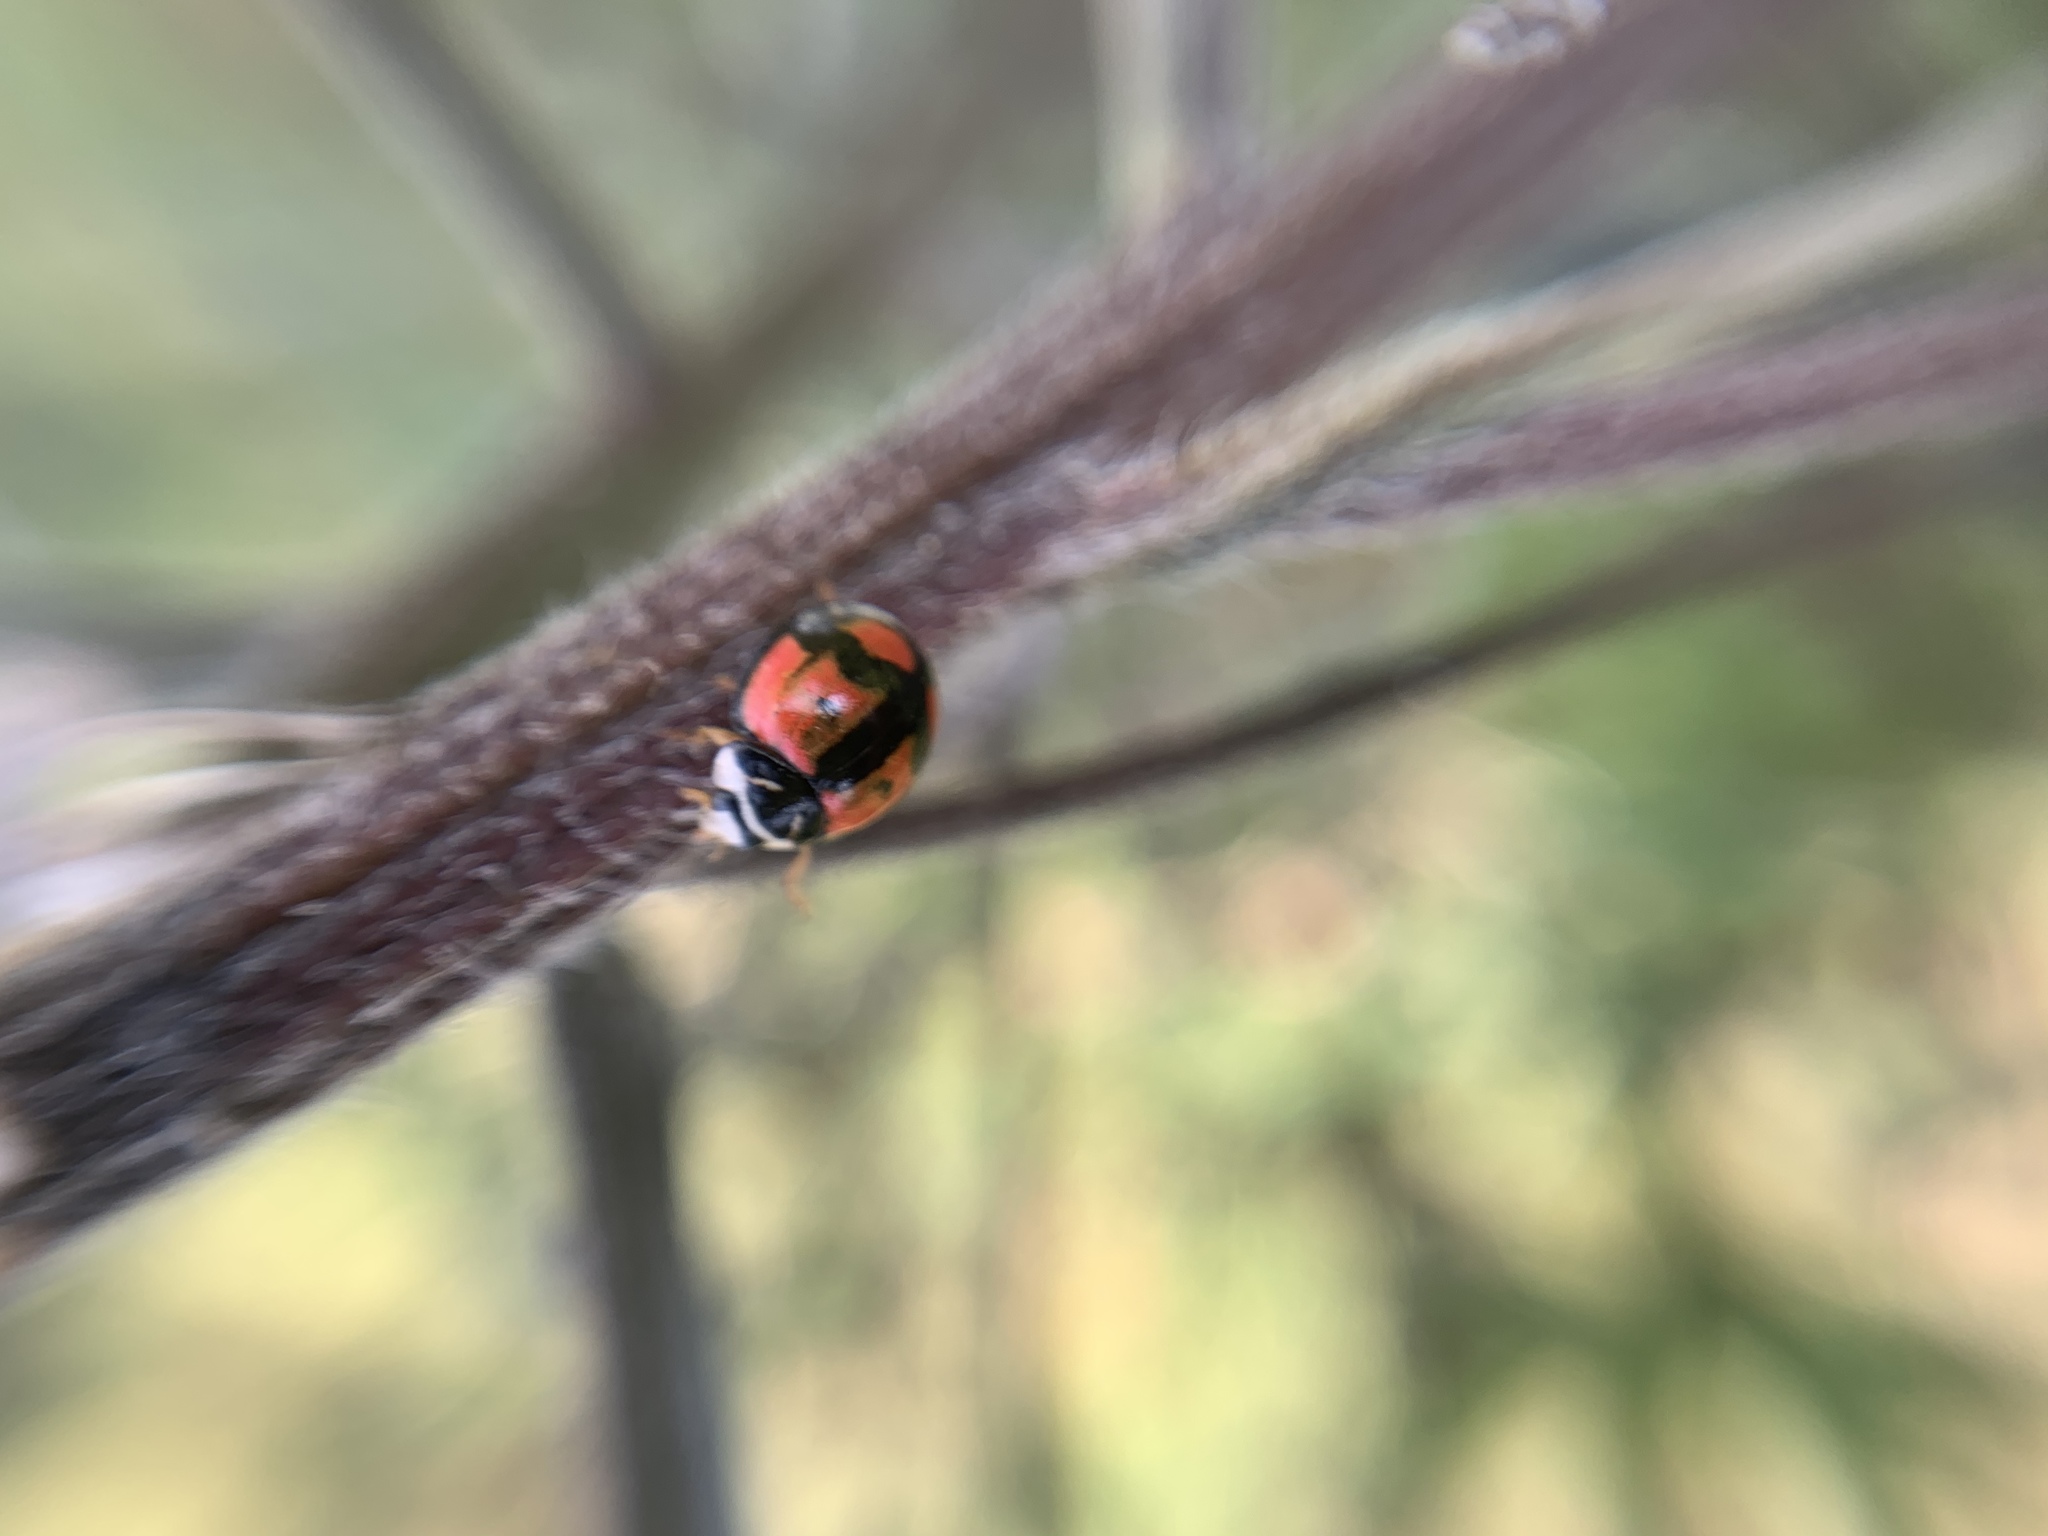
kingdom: Animalia
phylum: Arthropoda
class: Insecta
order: Coleoptera
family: Coccinellidae
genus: Cheilomenes
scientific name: Cheilomenes sexmaculata
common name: Ladybird beetle
